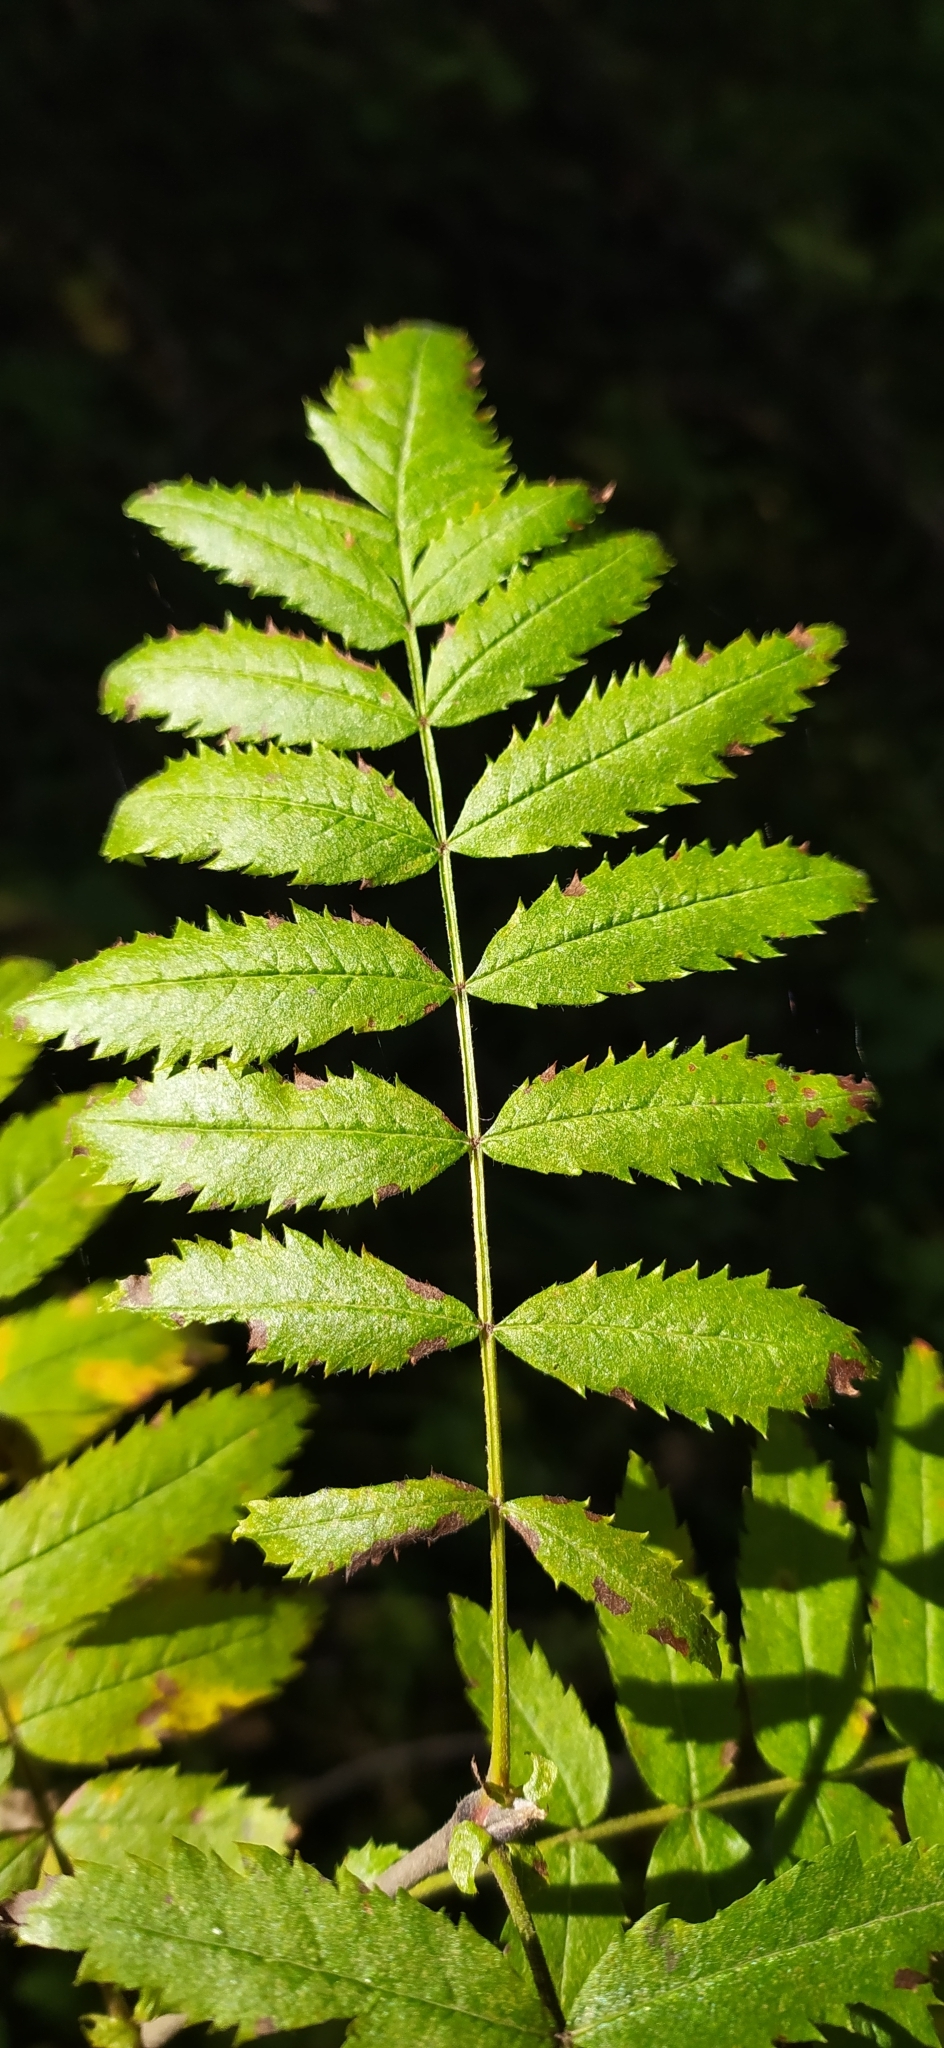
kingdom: Plantae
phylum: Tracheophyta
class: Magnoliopsida
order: Rosales
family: Rosaceae
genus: Sorbus
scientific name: Sorbus aucuparia
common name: Rowan
